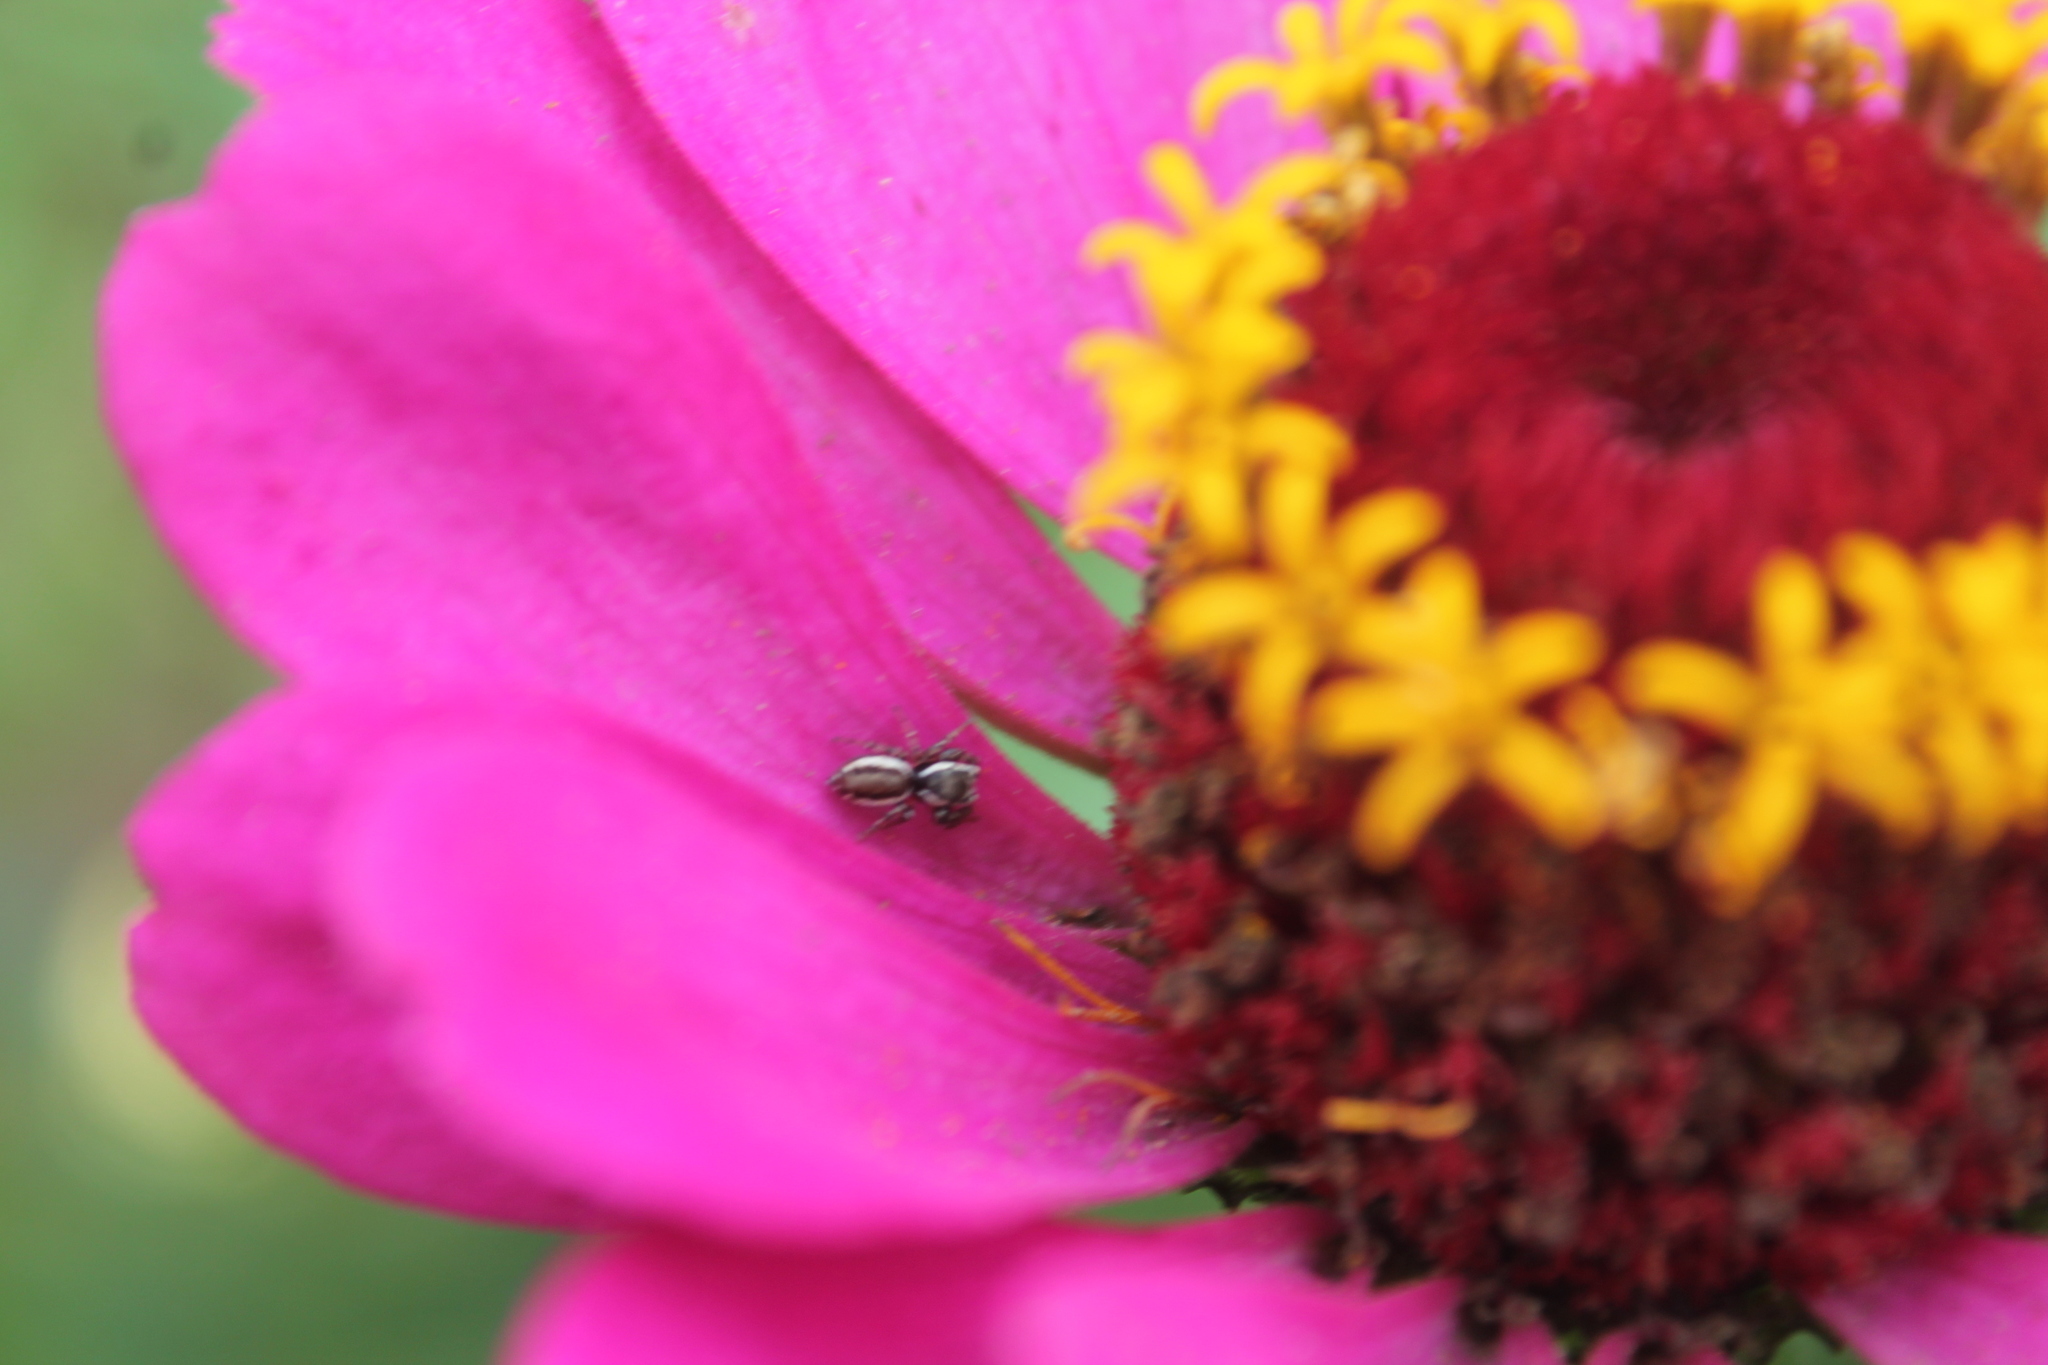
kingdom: Animalia
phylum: Arthropoda
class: Arachnida
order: Araneae
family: Salticidae
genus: Pelegrina
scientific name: Pelegrina proterva
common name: Common white-cheeked jumping spider
